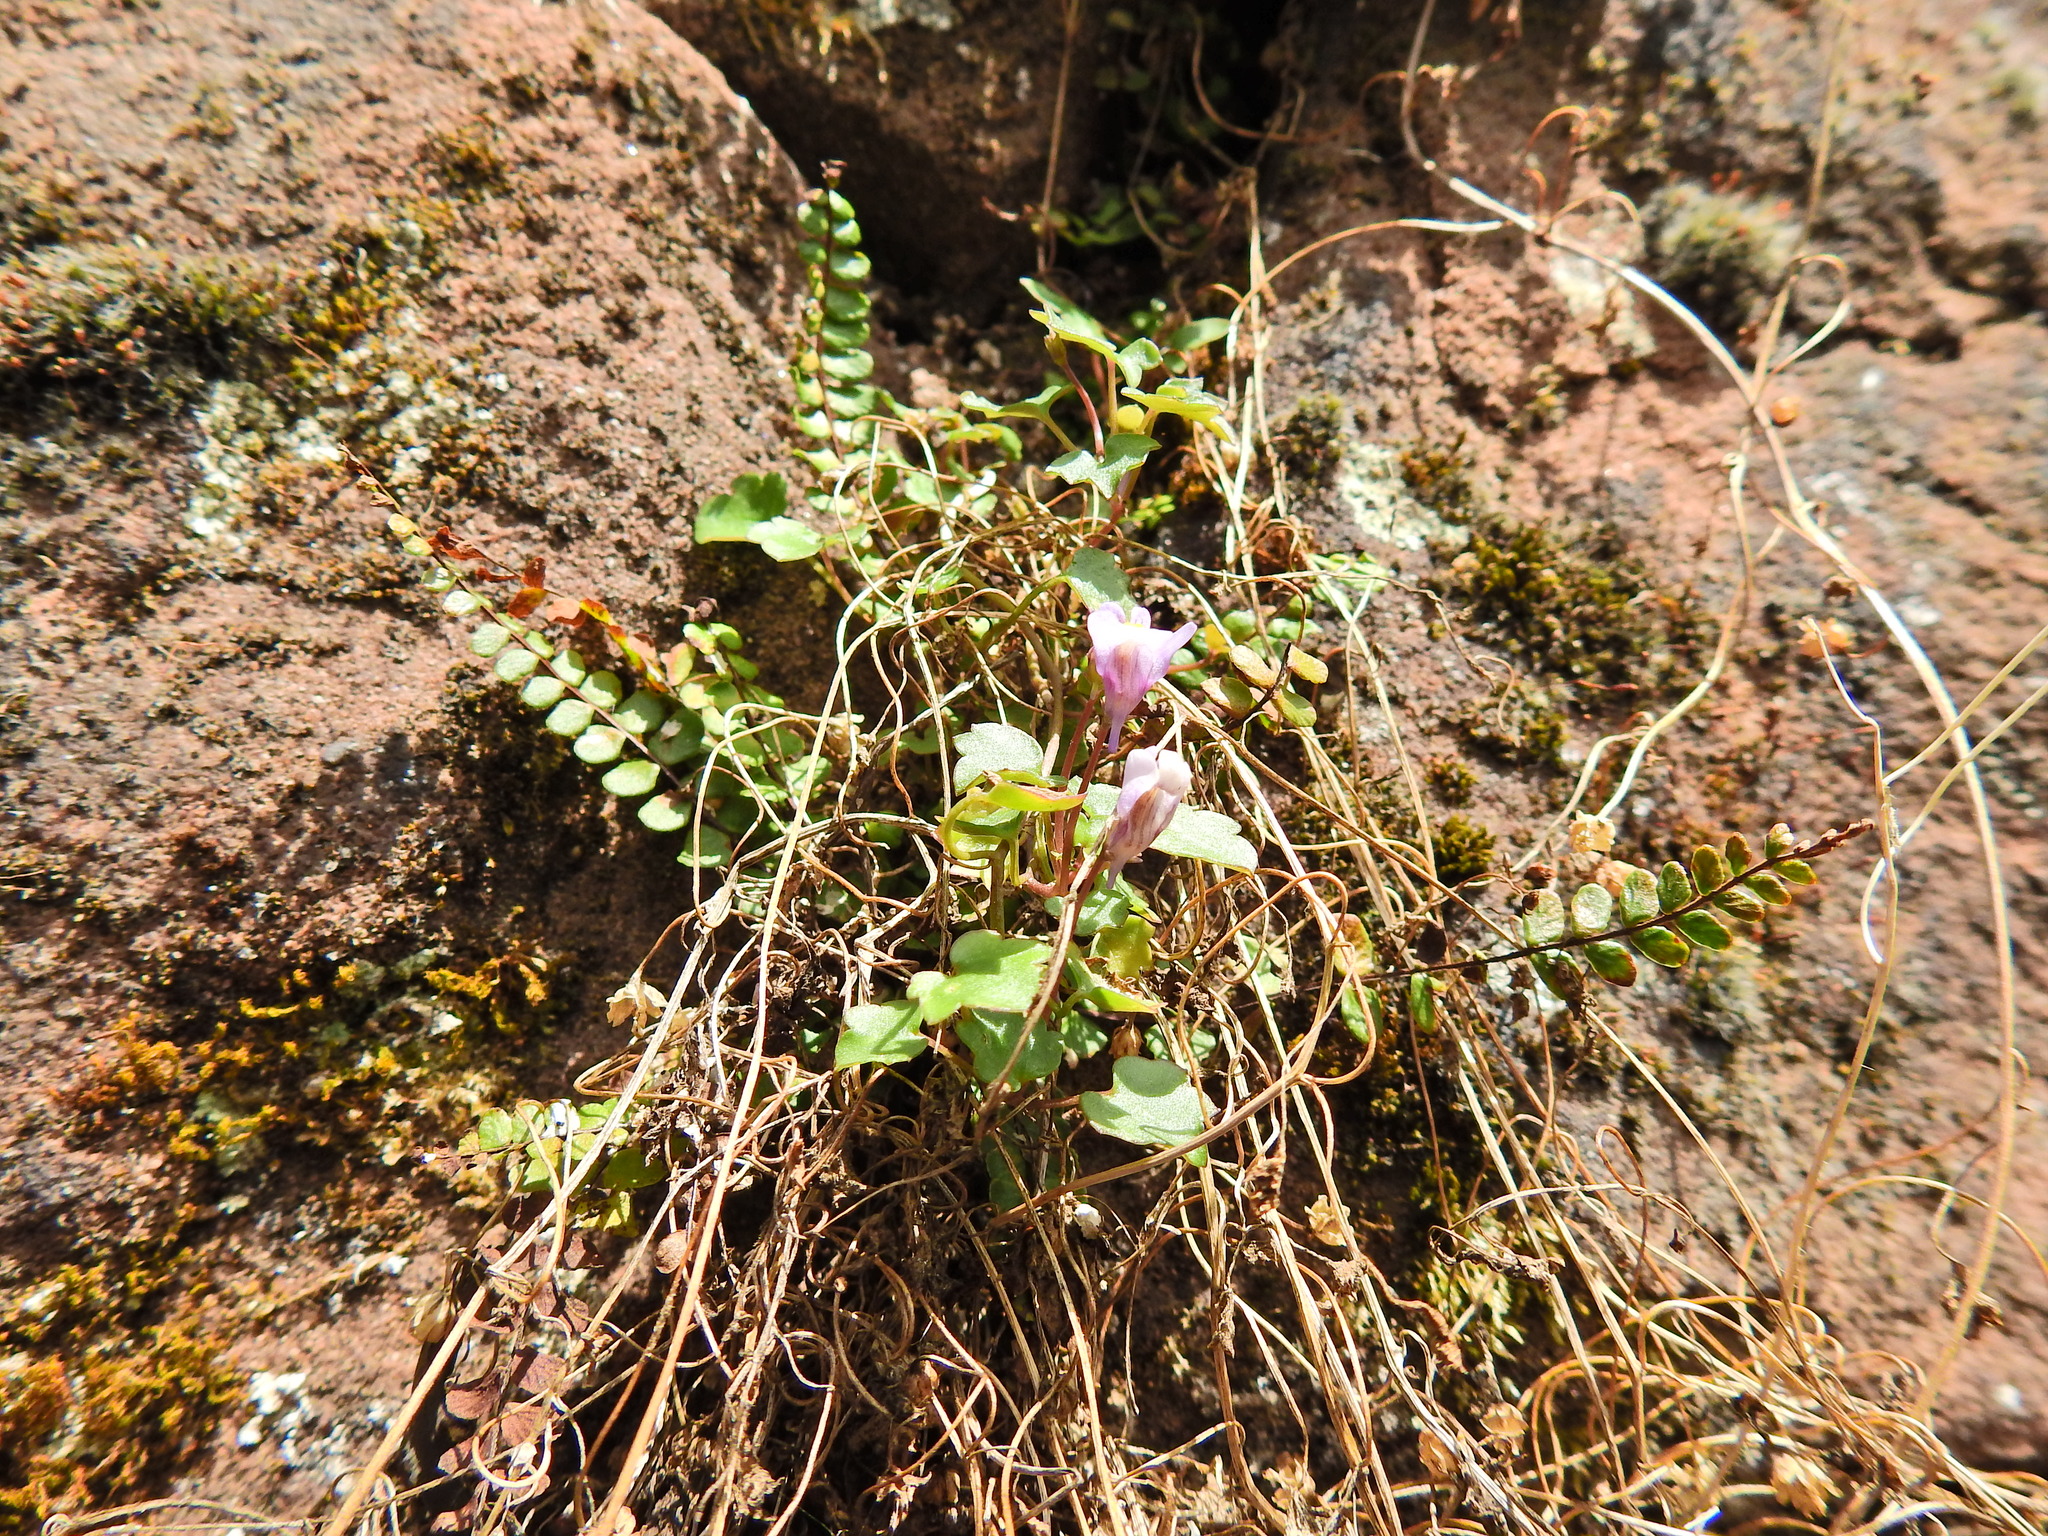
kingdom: Plantae
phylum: Tracheophyta
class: Magnoliopsida
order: Lamiales
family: Plantaginaceae
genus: Cymbalaria
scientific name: Cymbalaria muralis
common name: Ivy-leaved toadflax
